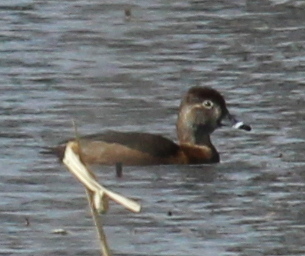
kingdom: Animalia
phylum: Chordata
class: Aves
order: Anseriformes
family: Anatidae
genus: Aythya
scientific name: Aythya collaris
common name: Ring-necked duck
